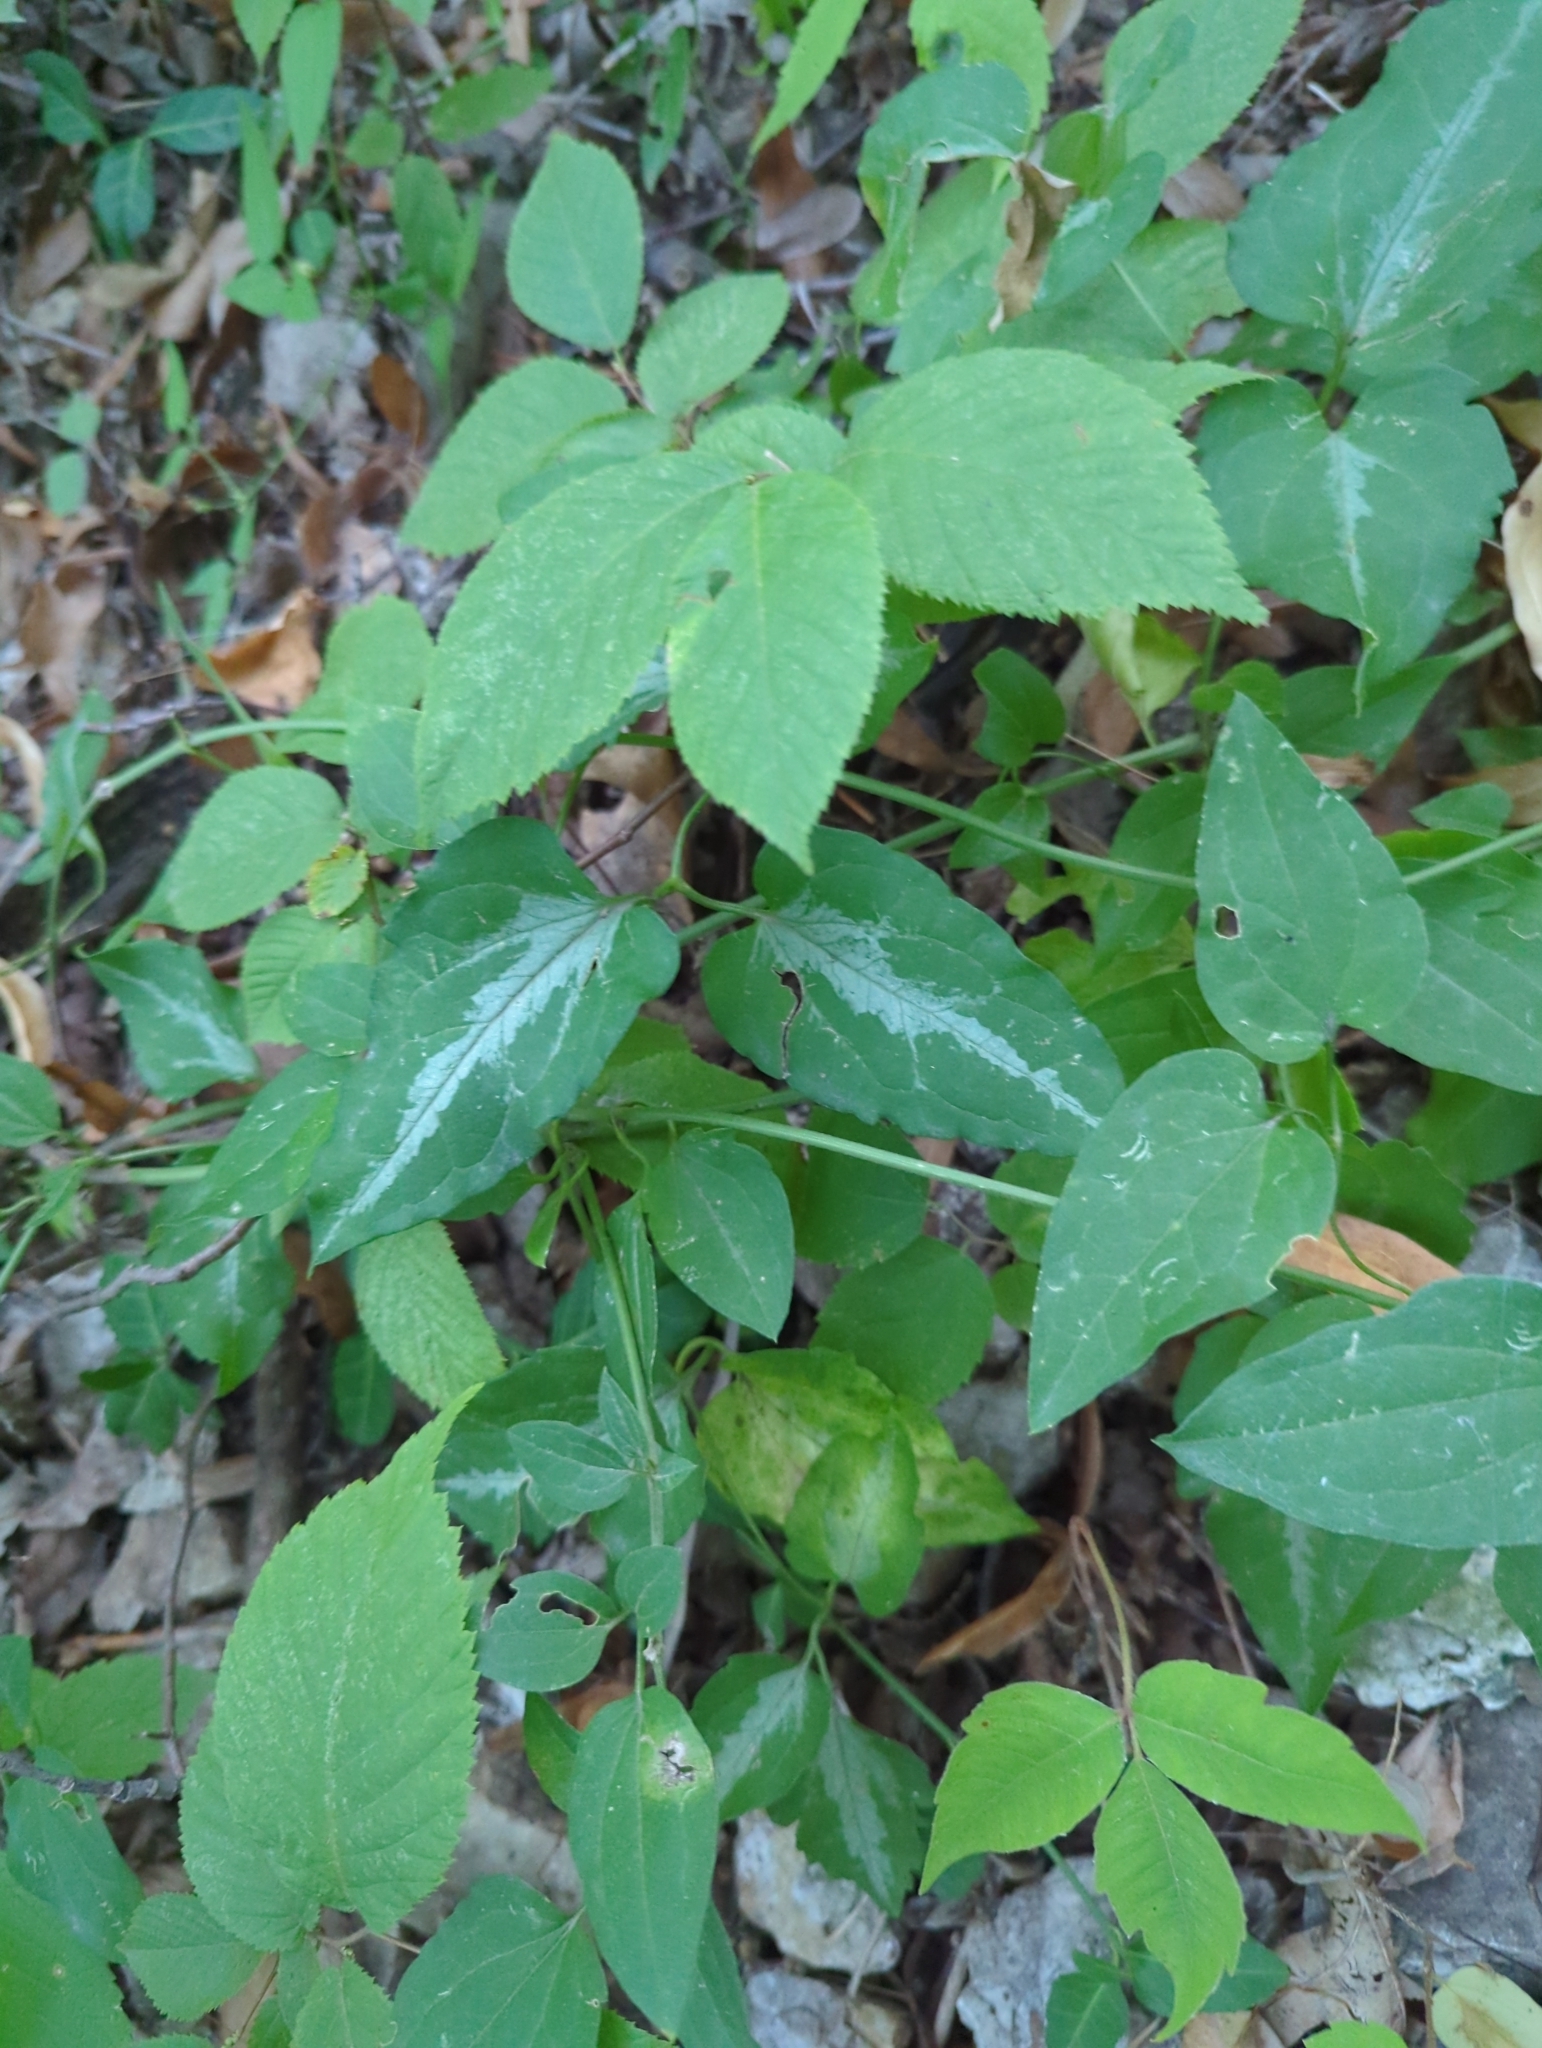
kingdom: Plantae
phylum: Tracheophyta
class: Magnoliopsida
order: Ranunculales
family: Ranunculaceae
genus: Clematis
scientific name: Clematis terniflora
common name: Sweet autumn clematis
